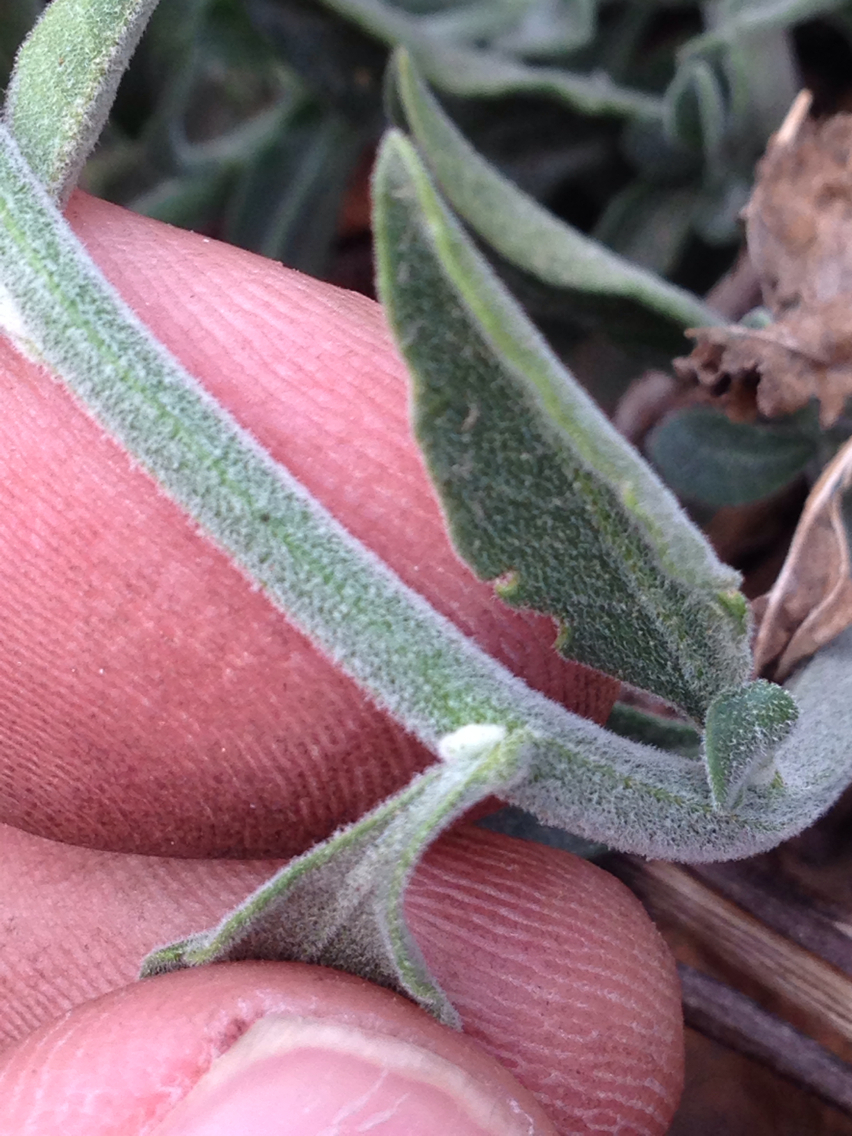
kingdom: Plantae
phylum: Tracheophyta
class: Magnoliopsida
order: Solanales
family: Solanaceae
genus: Solanum
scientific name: Solanum umbelliferum
